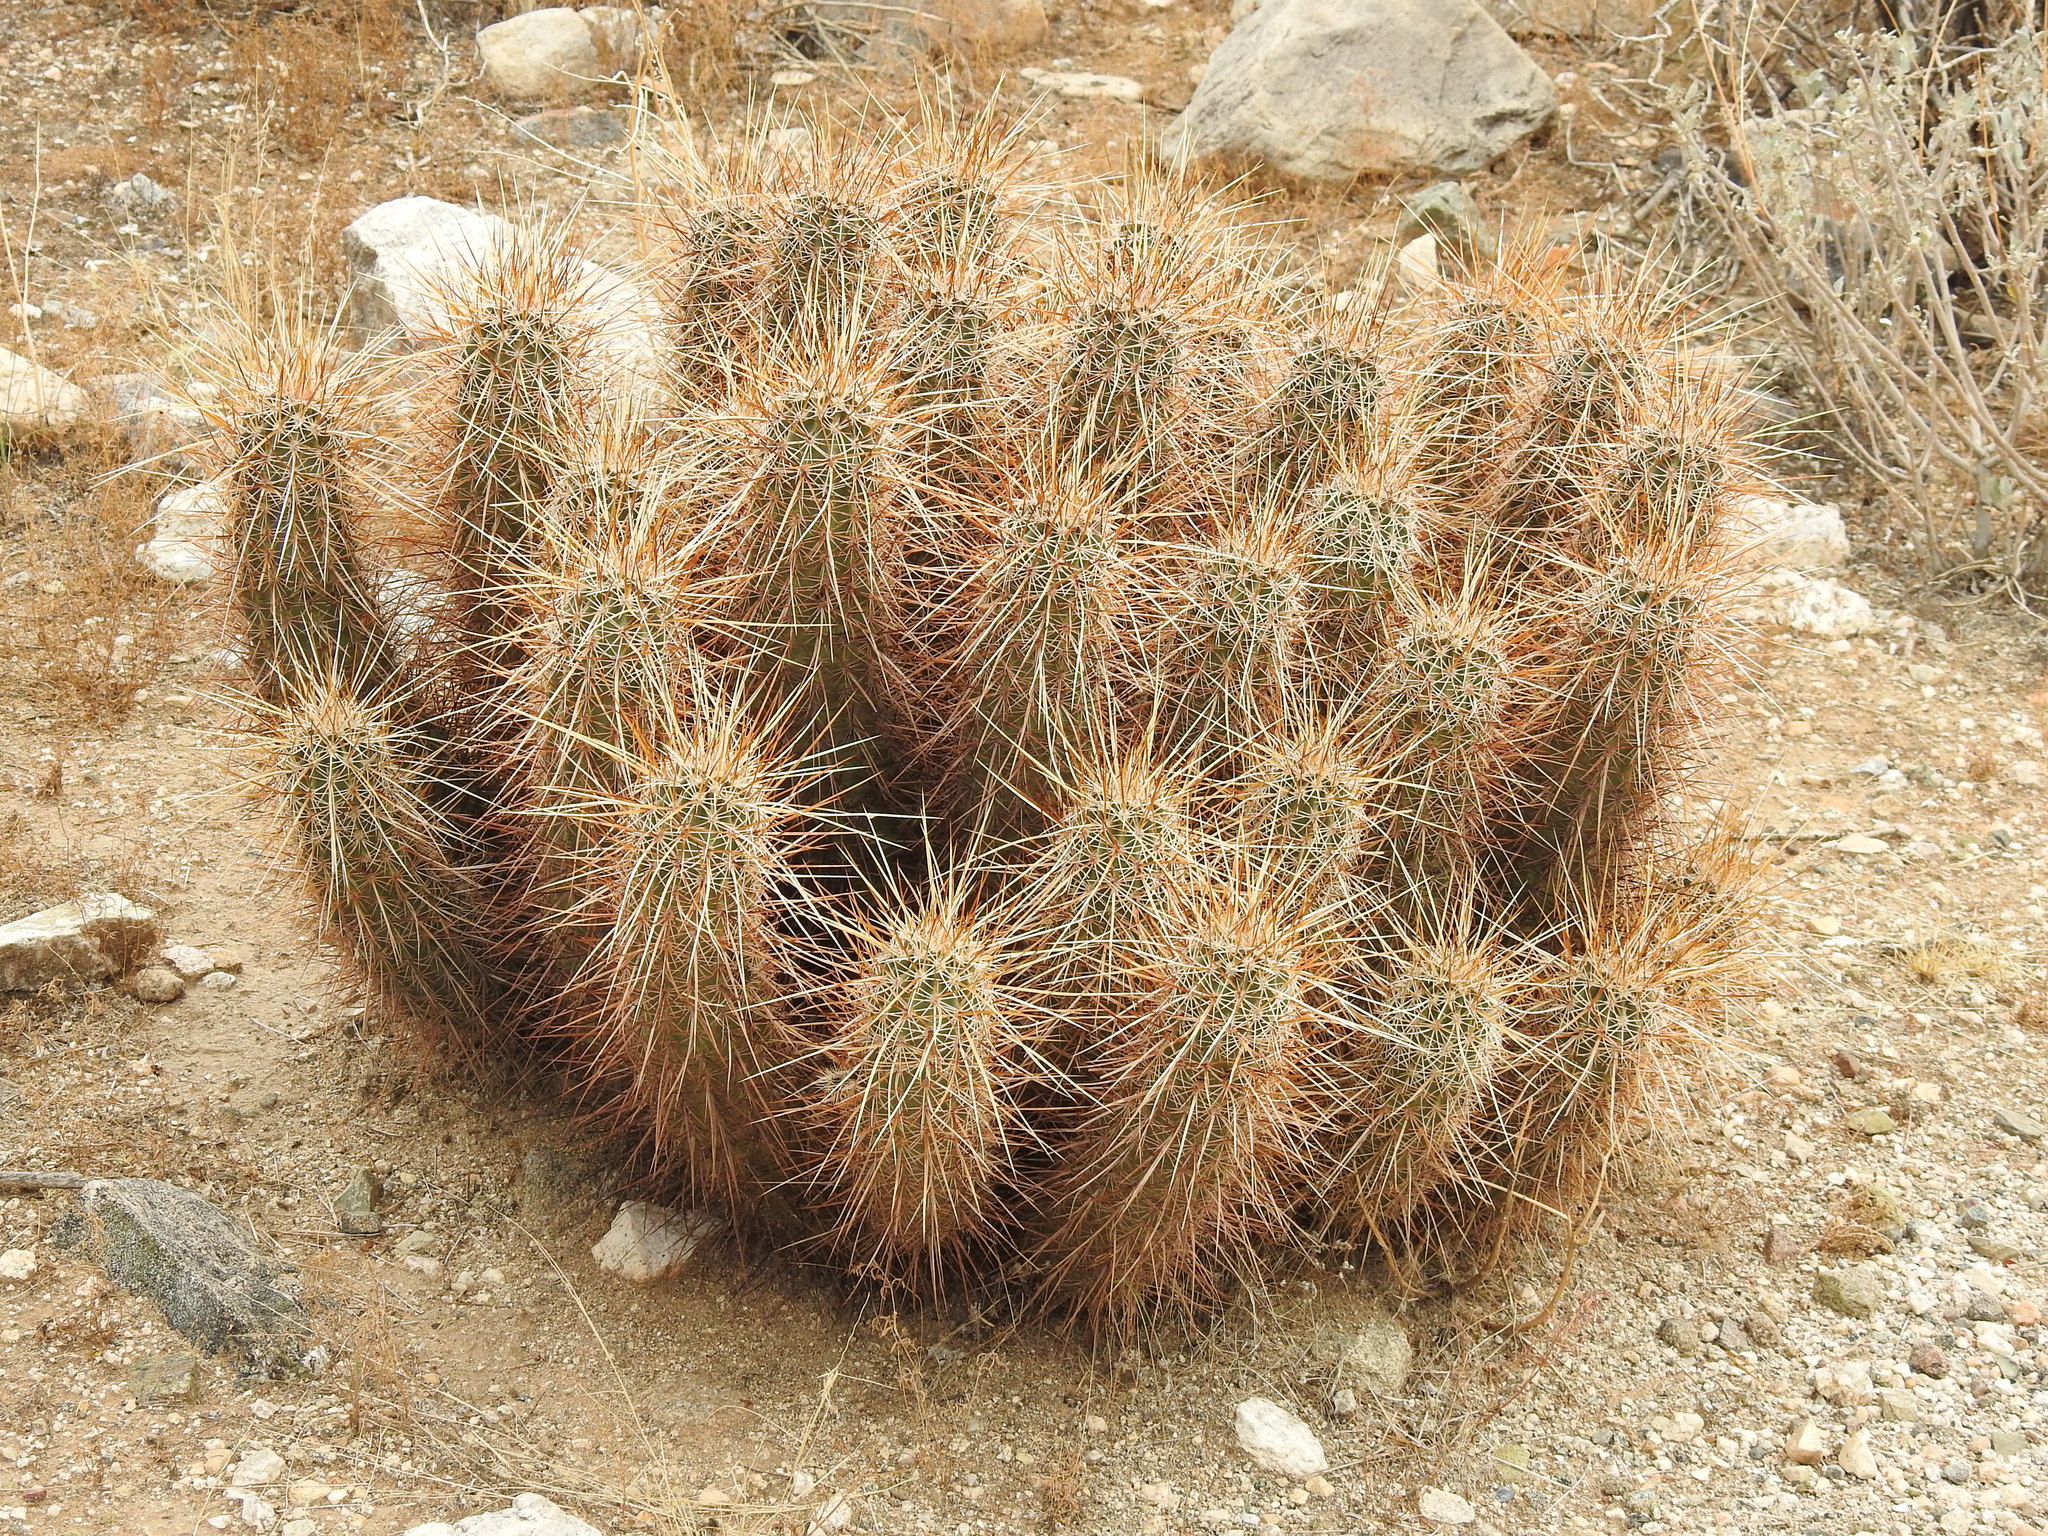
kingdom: Plantae
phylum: Tracheophyta
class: Magnoliopsida
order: Caryophyllales
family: Cactaceae
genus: Echinocereus
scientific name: Echinocereus engelmannii
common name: Engelmann's hedgehog cactus
